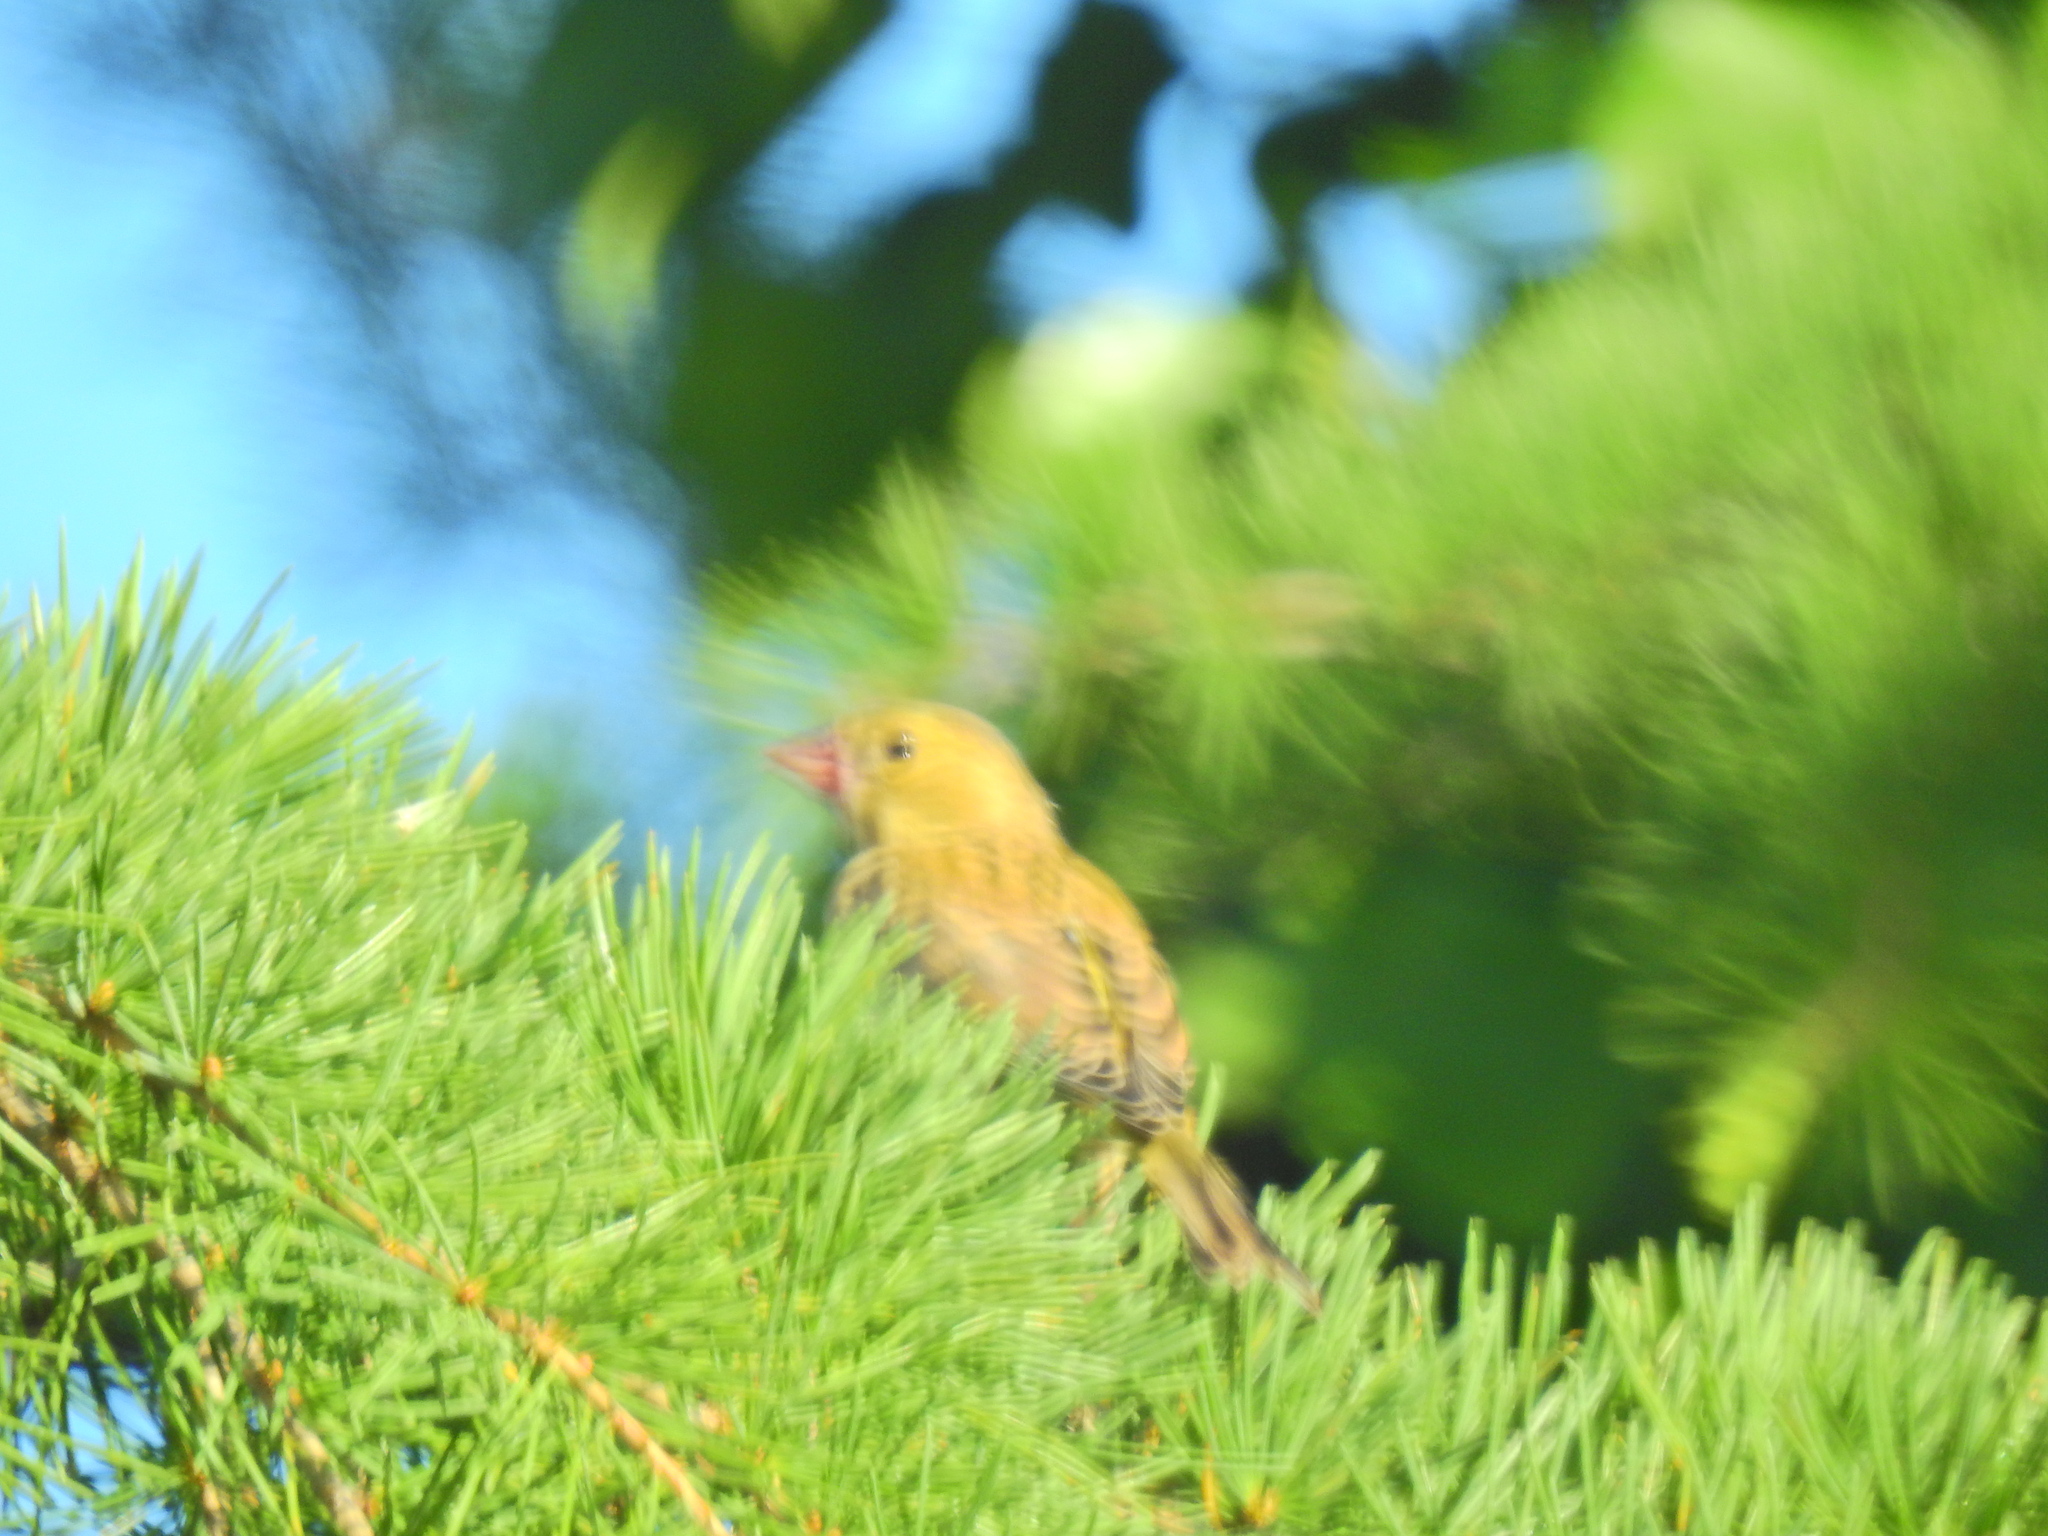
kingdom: Plantae
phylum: Tracheophyta
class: Liliopsida
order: Poales
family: Poaceae
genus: Chloris
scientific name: Chloris chloris
